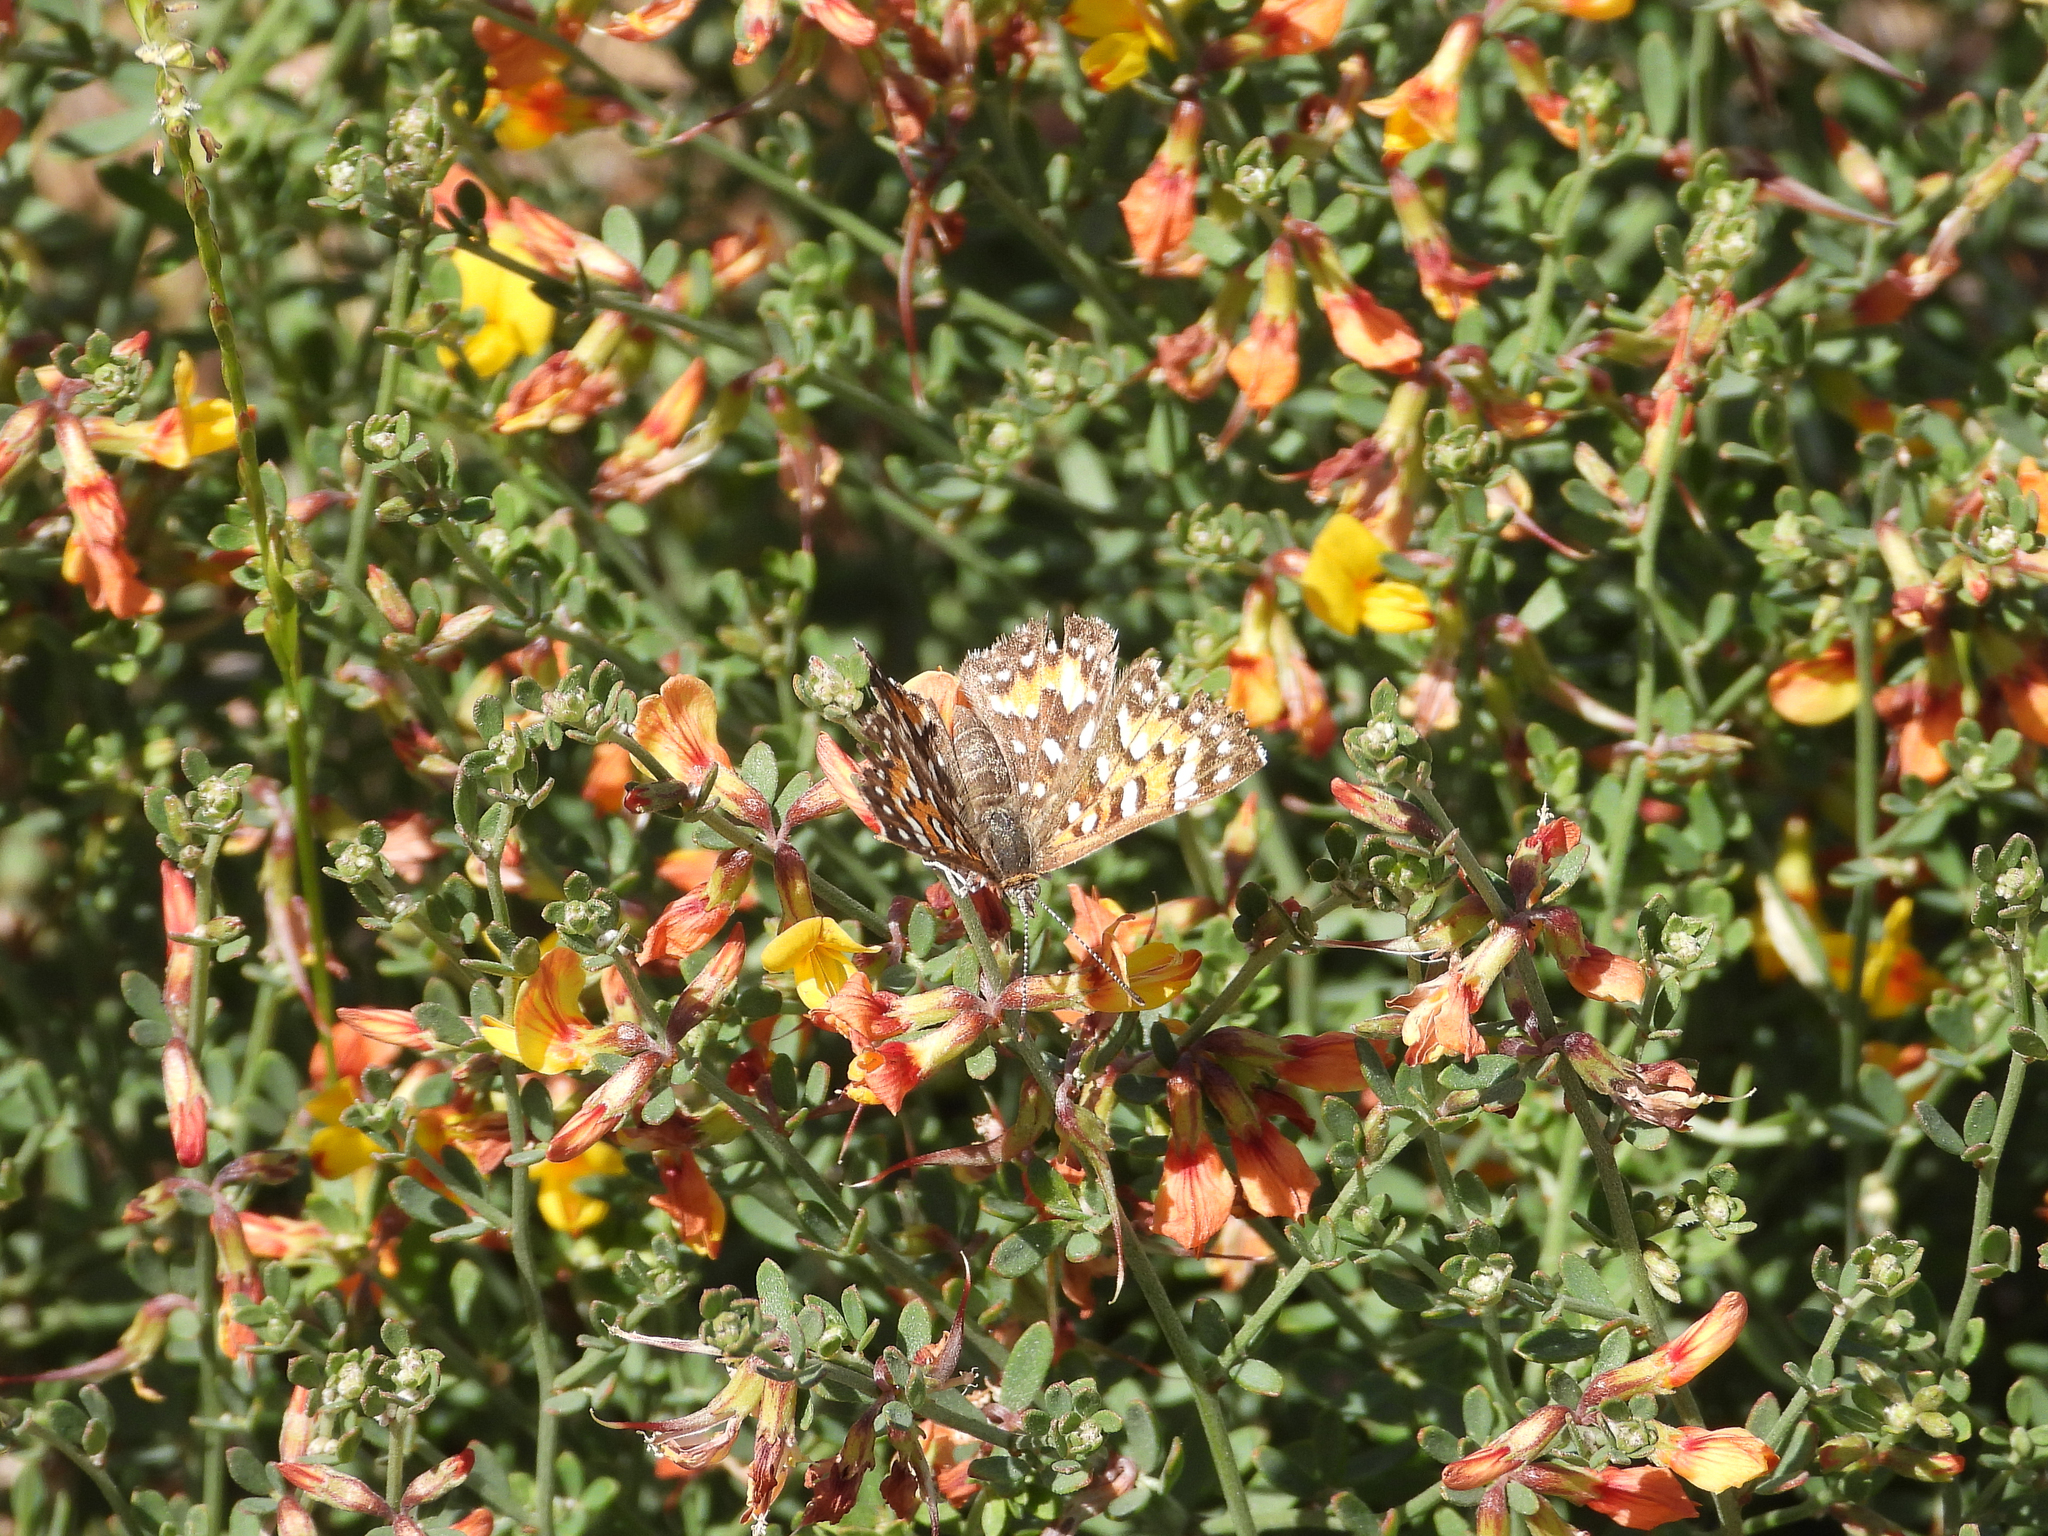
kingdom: Animalia
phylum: Arthropoda
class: Insecta
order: Lepidoptera
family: Riodinidae
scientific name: Riodinidae
